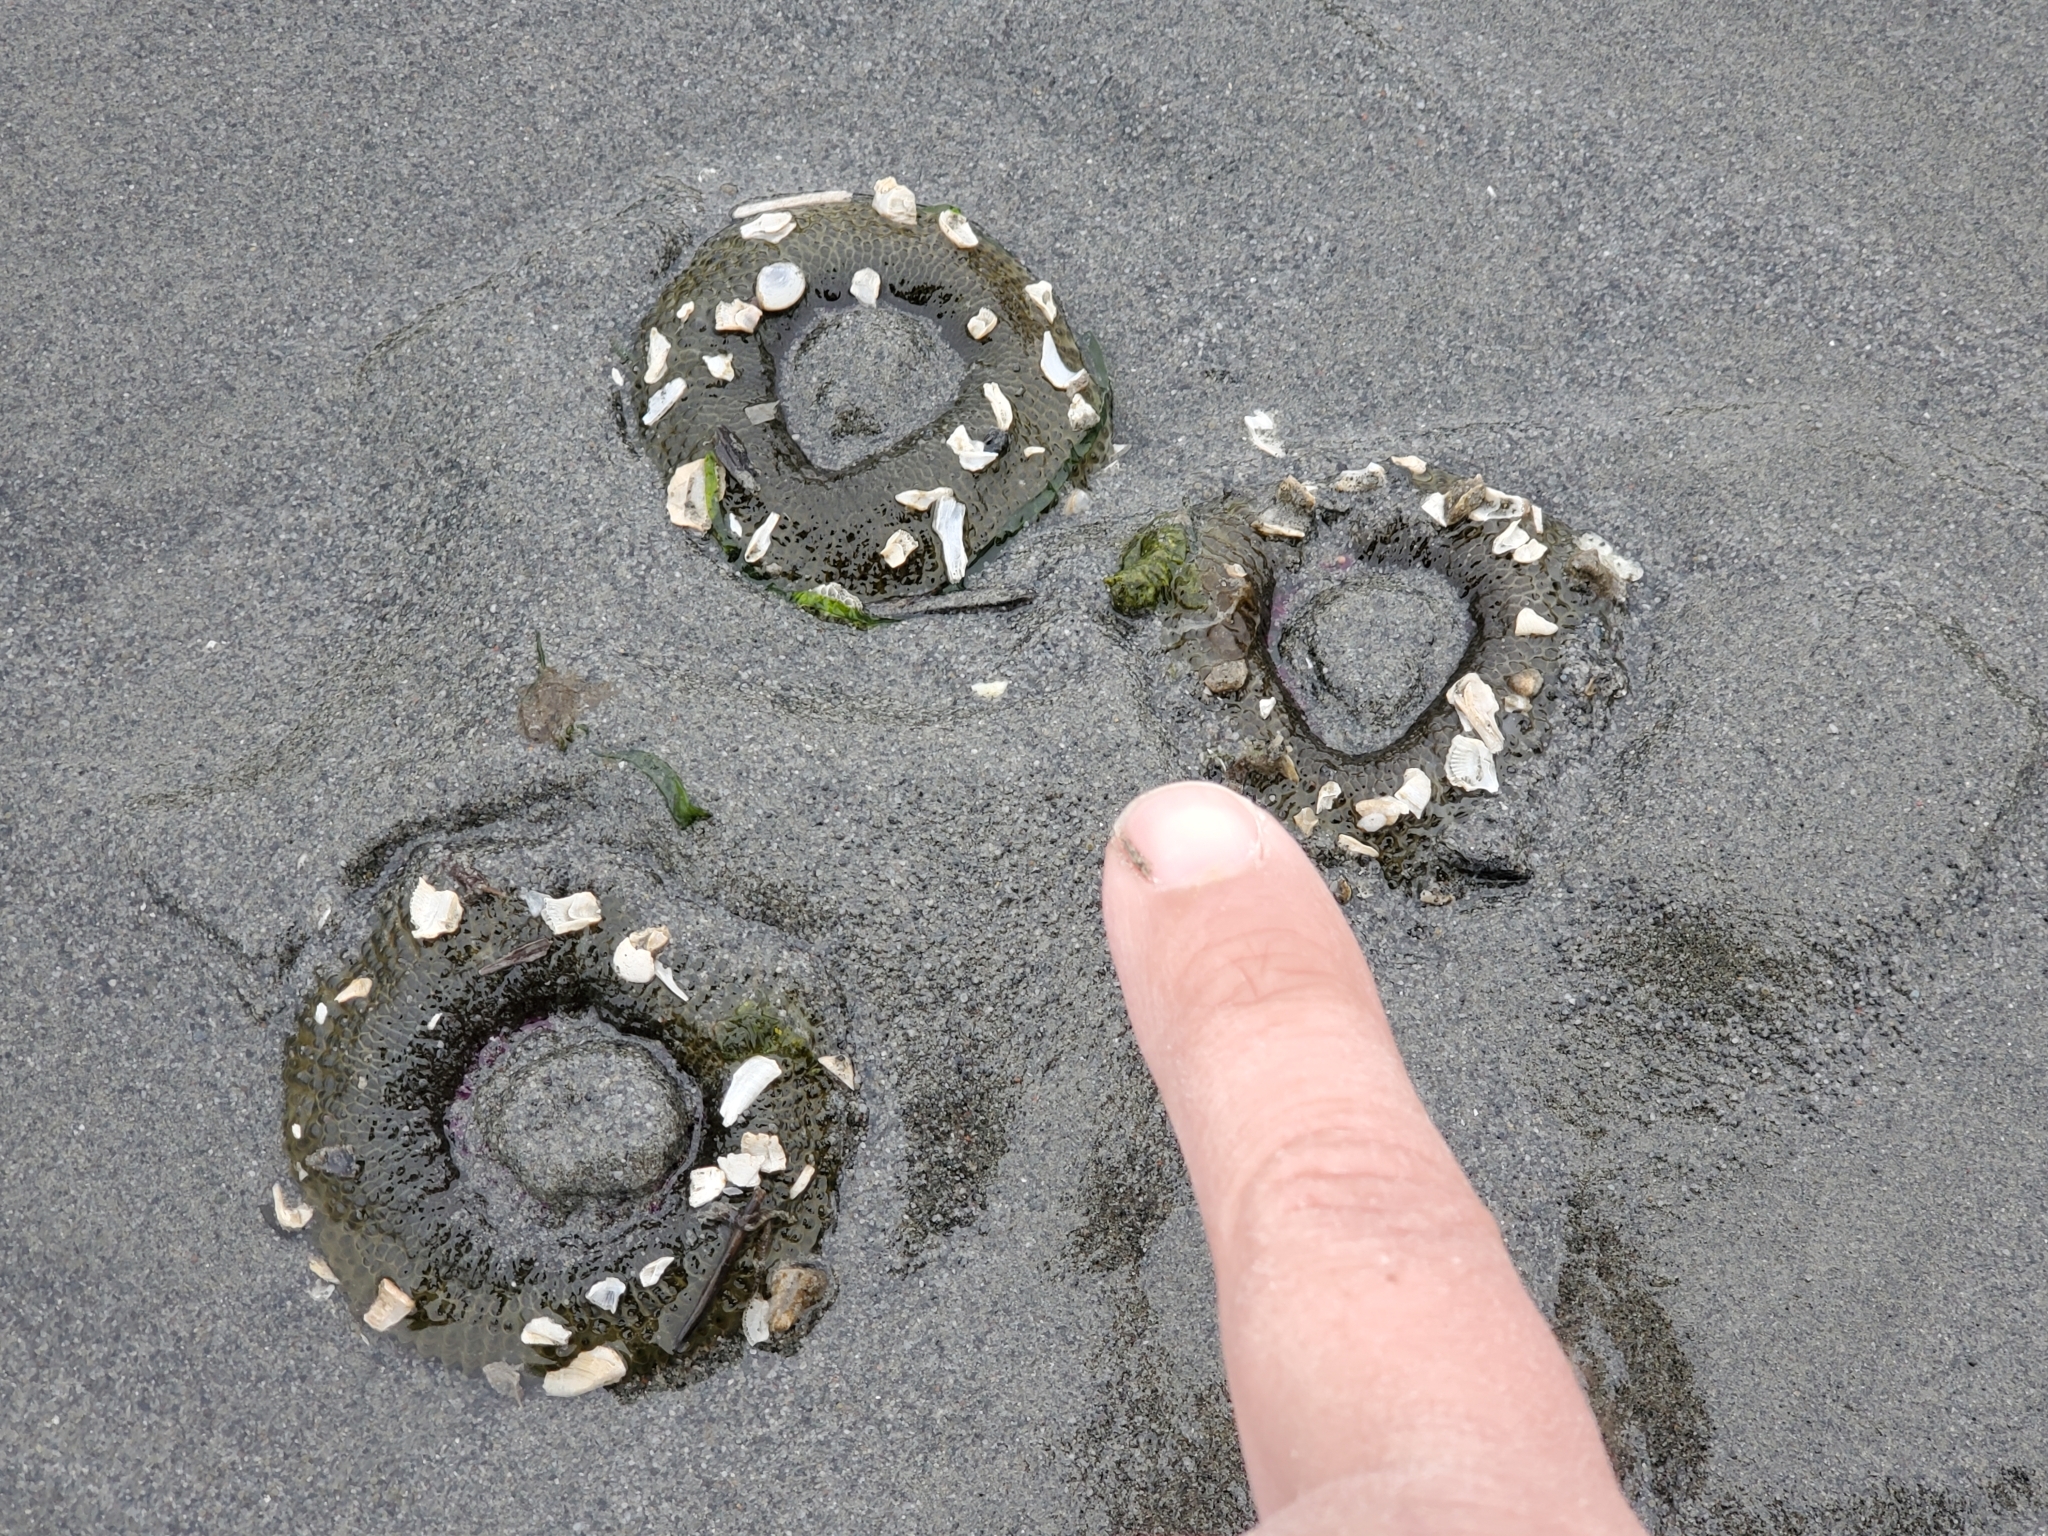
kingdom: Animalia
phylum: Cnidaria
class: Anthozoa
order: Actiniaria
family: Actiniidae
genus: Anthopleura
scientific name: Anthopleura elegantissima
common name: Clonal anemone
